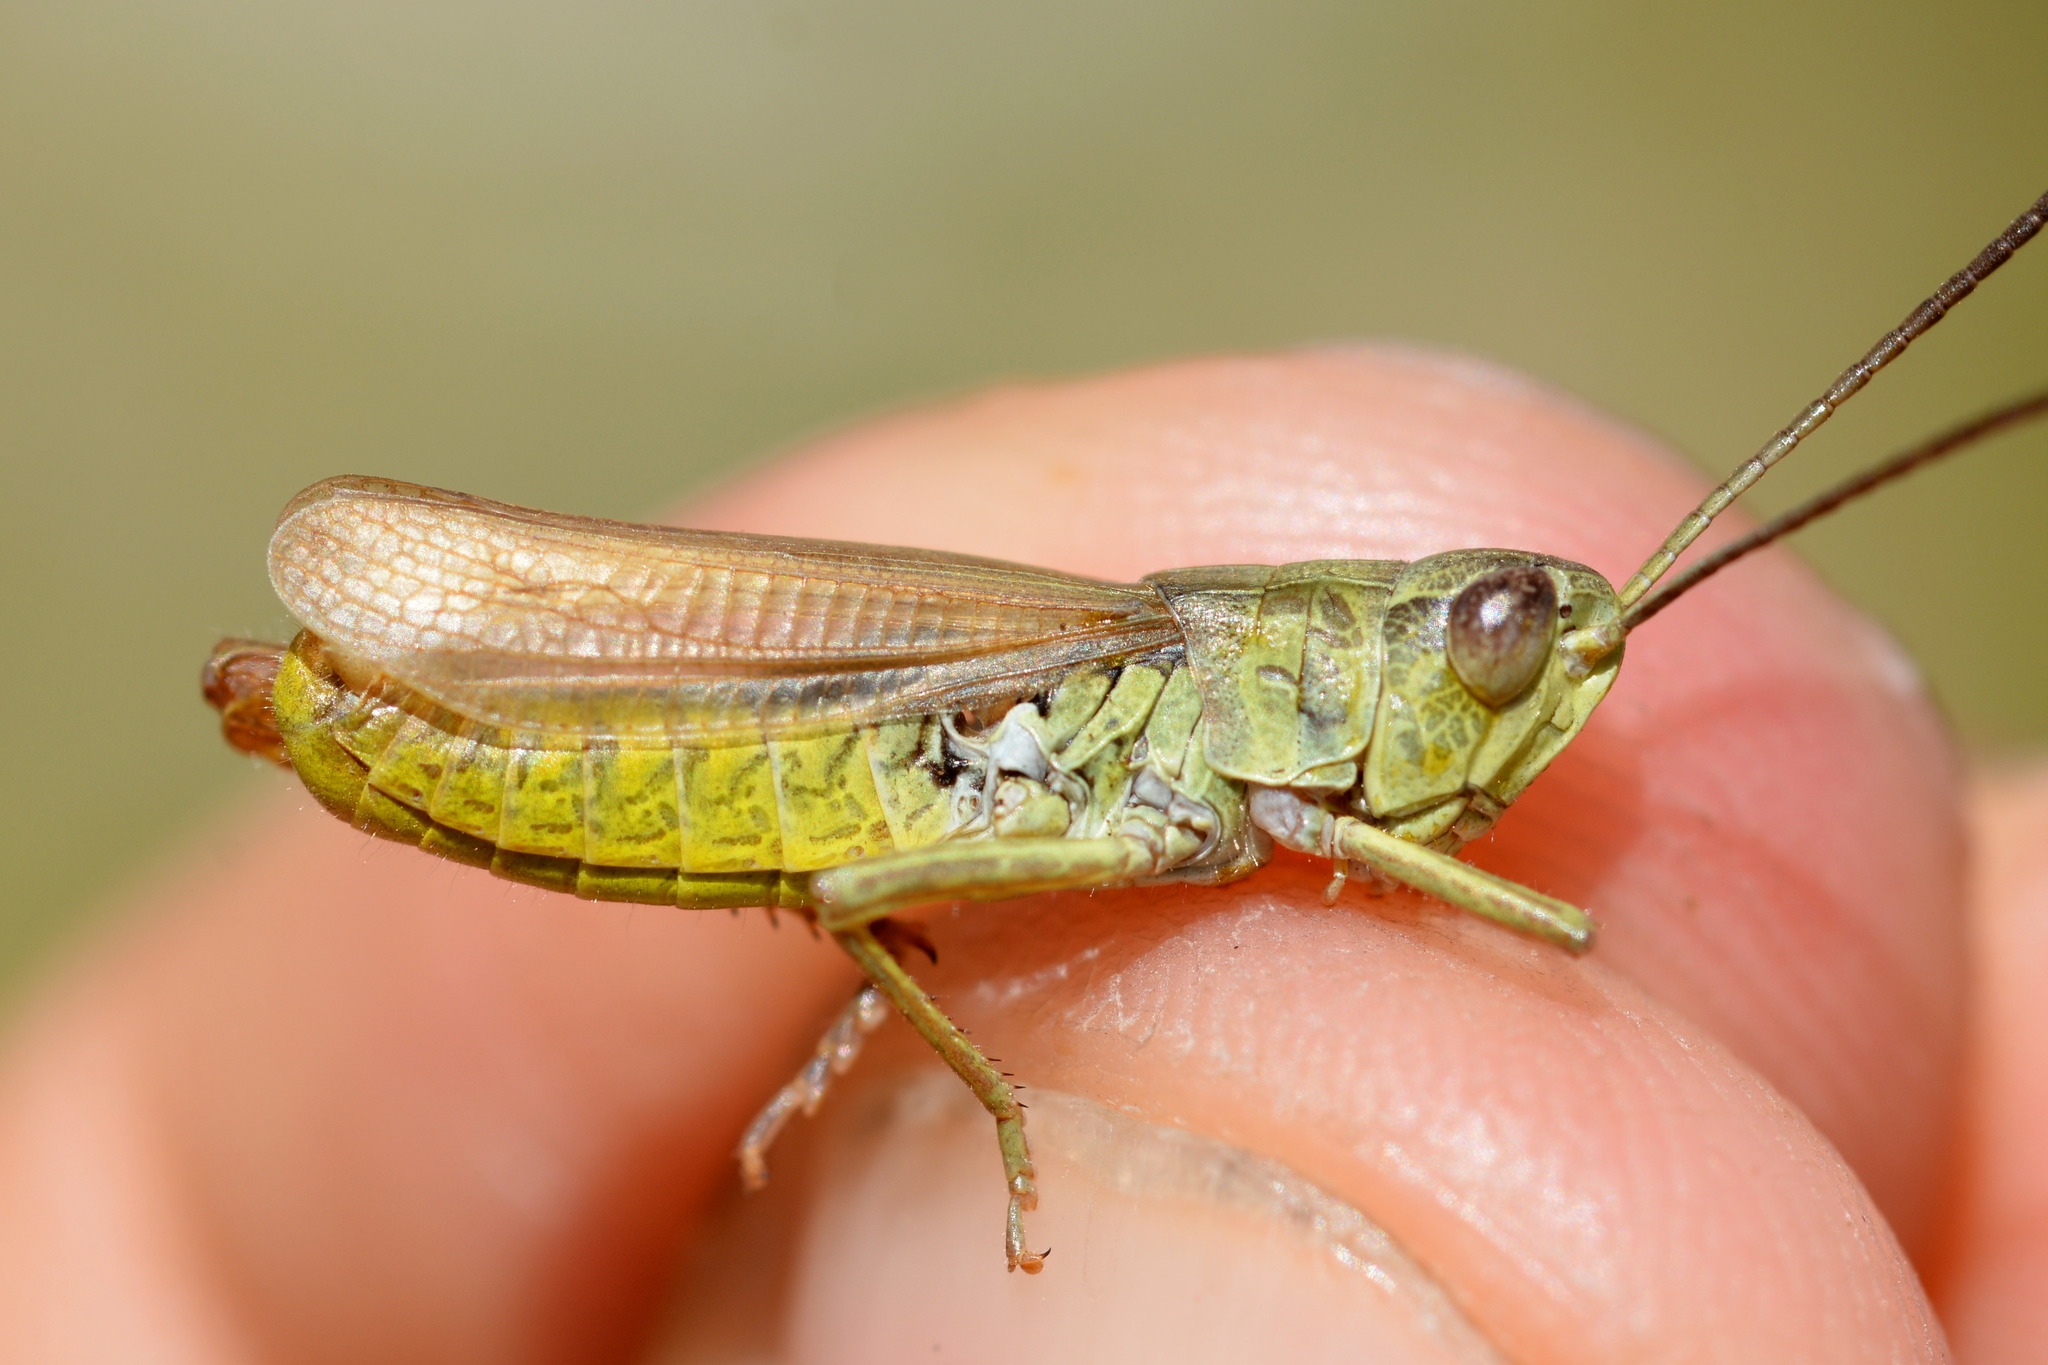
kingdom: Animalia
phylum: Arthropoda
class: Insecta
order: Orthoptera
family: Acrididae
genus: Chorthippus
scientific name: Chorthippus apricarius
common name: Upland field grasshopper
